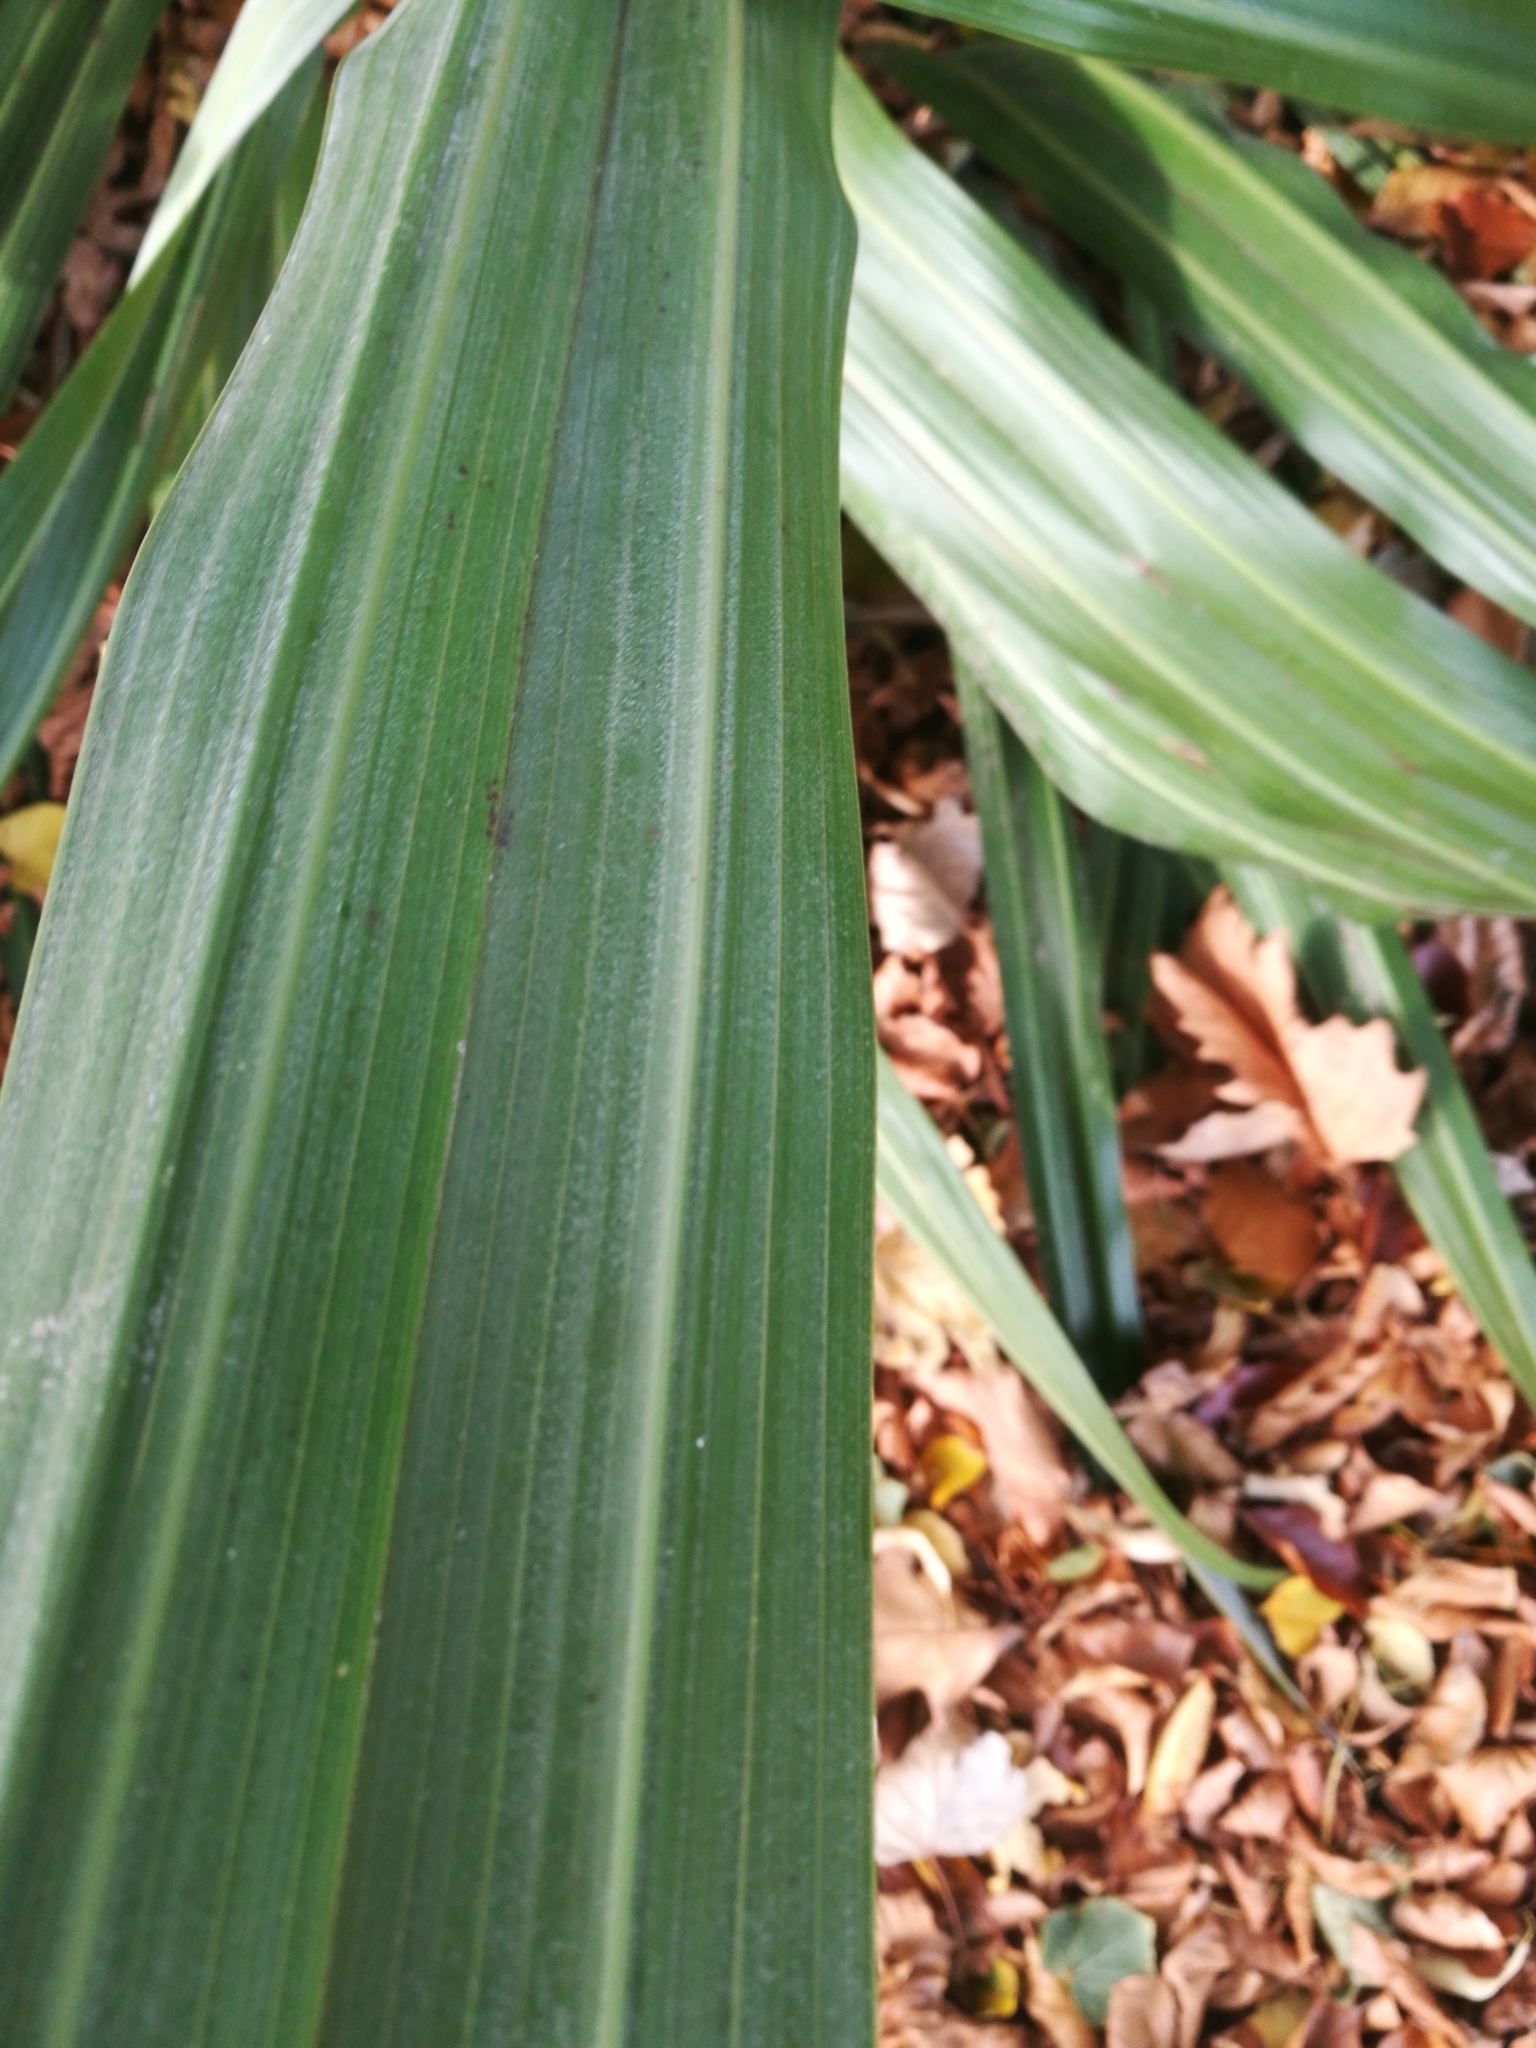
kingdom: Plantae
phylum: Tracheophyta
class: Liliopsida
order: Asparagales
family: Asteliaceae
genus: Astelia
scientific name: Astelia chathamica
